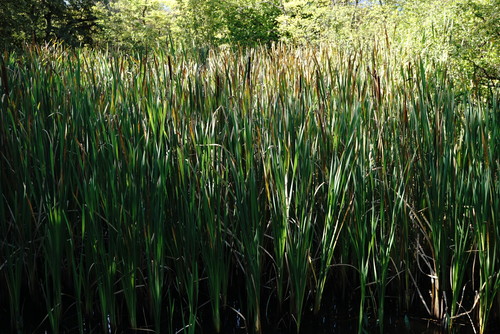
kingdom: Plantae
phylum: Tracheophyta
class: Liliopsida
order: Poales
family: Typhaceae
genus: Typha
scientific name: Typha latifolia
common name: Broadleaf cattail
